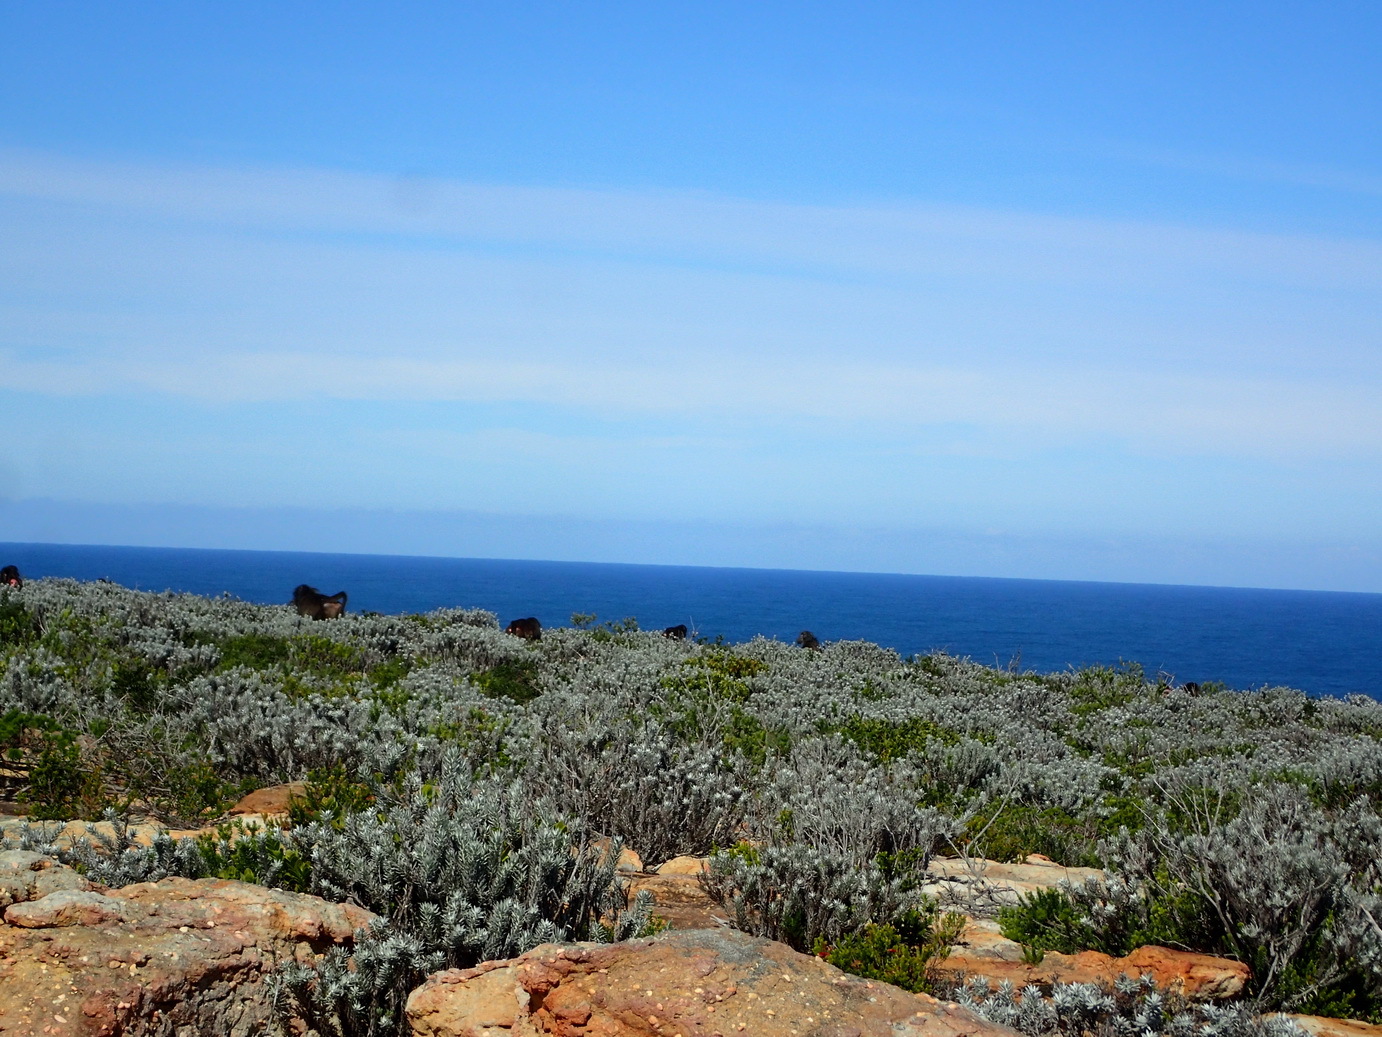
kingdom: Plantae
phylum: Tracheophyta
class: Magnoliopsida
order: Asterales
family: Asteraceae
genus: Achyranthemum
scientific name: Achyranthemum paniculatum
